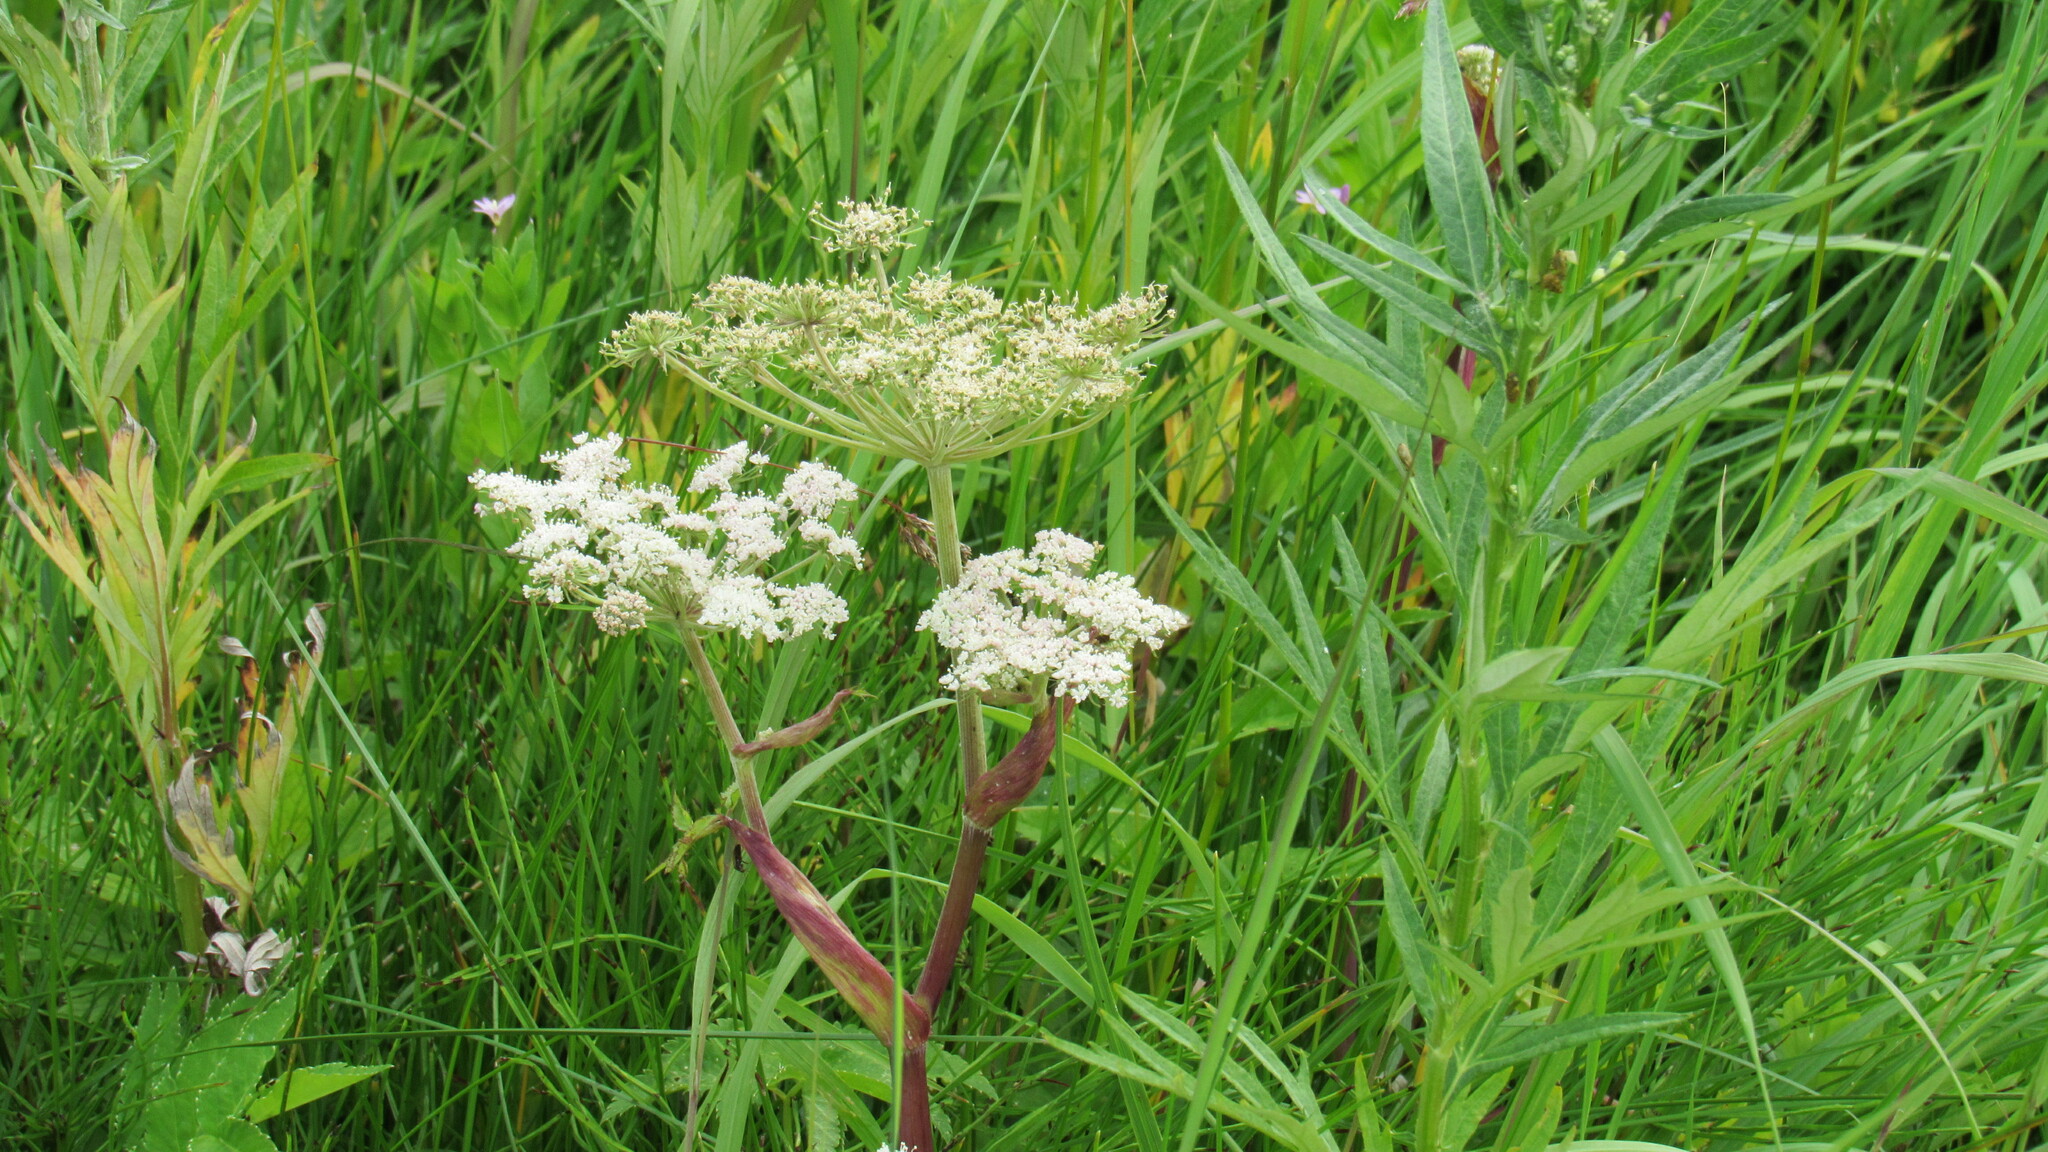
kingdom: Plantae
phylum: Tracheophyta
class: Magnoliopsida
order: Apiales
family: Apiaceae
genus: Heracleum
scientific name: Heracleum maximum
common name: American cow parsnip
